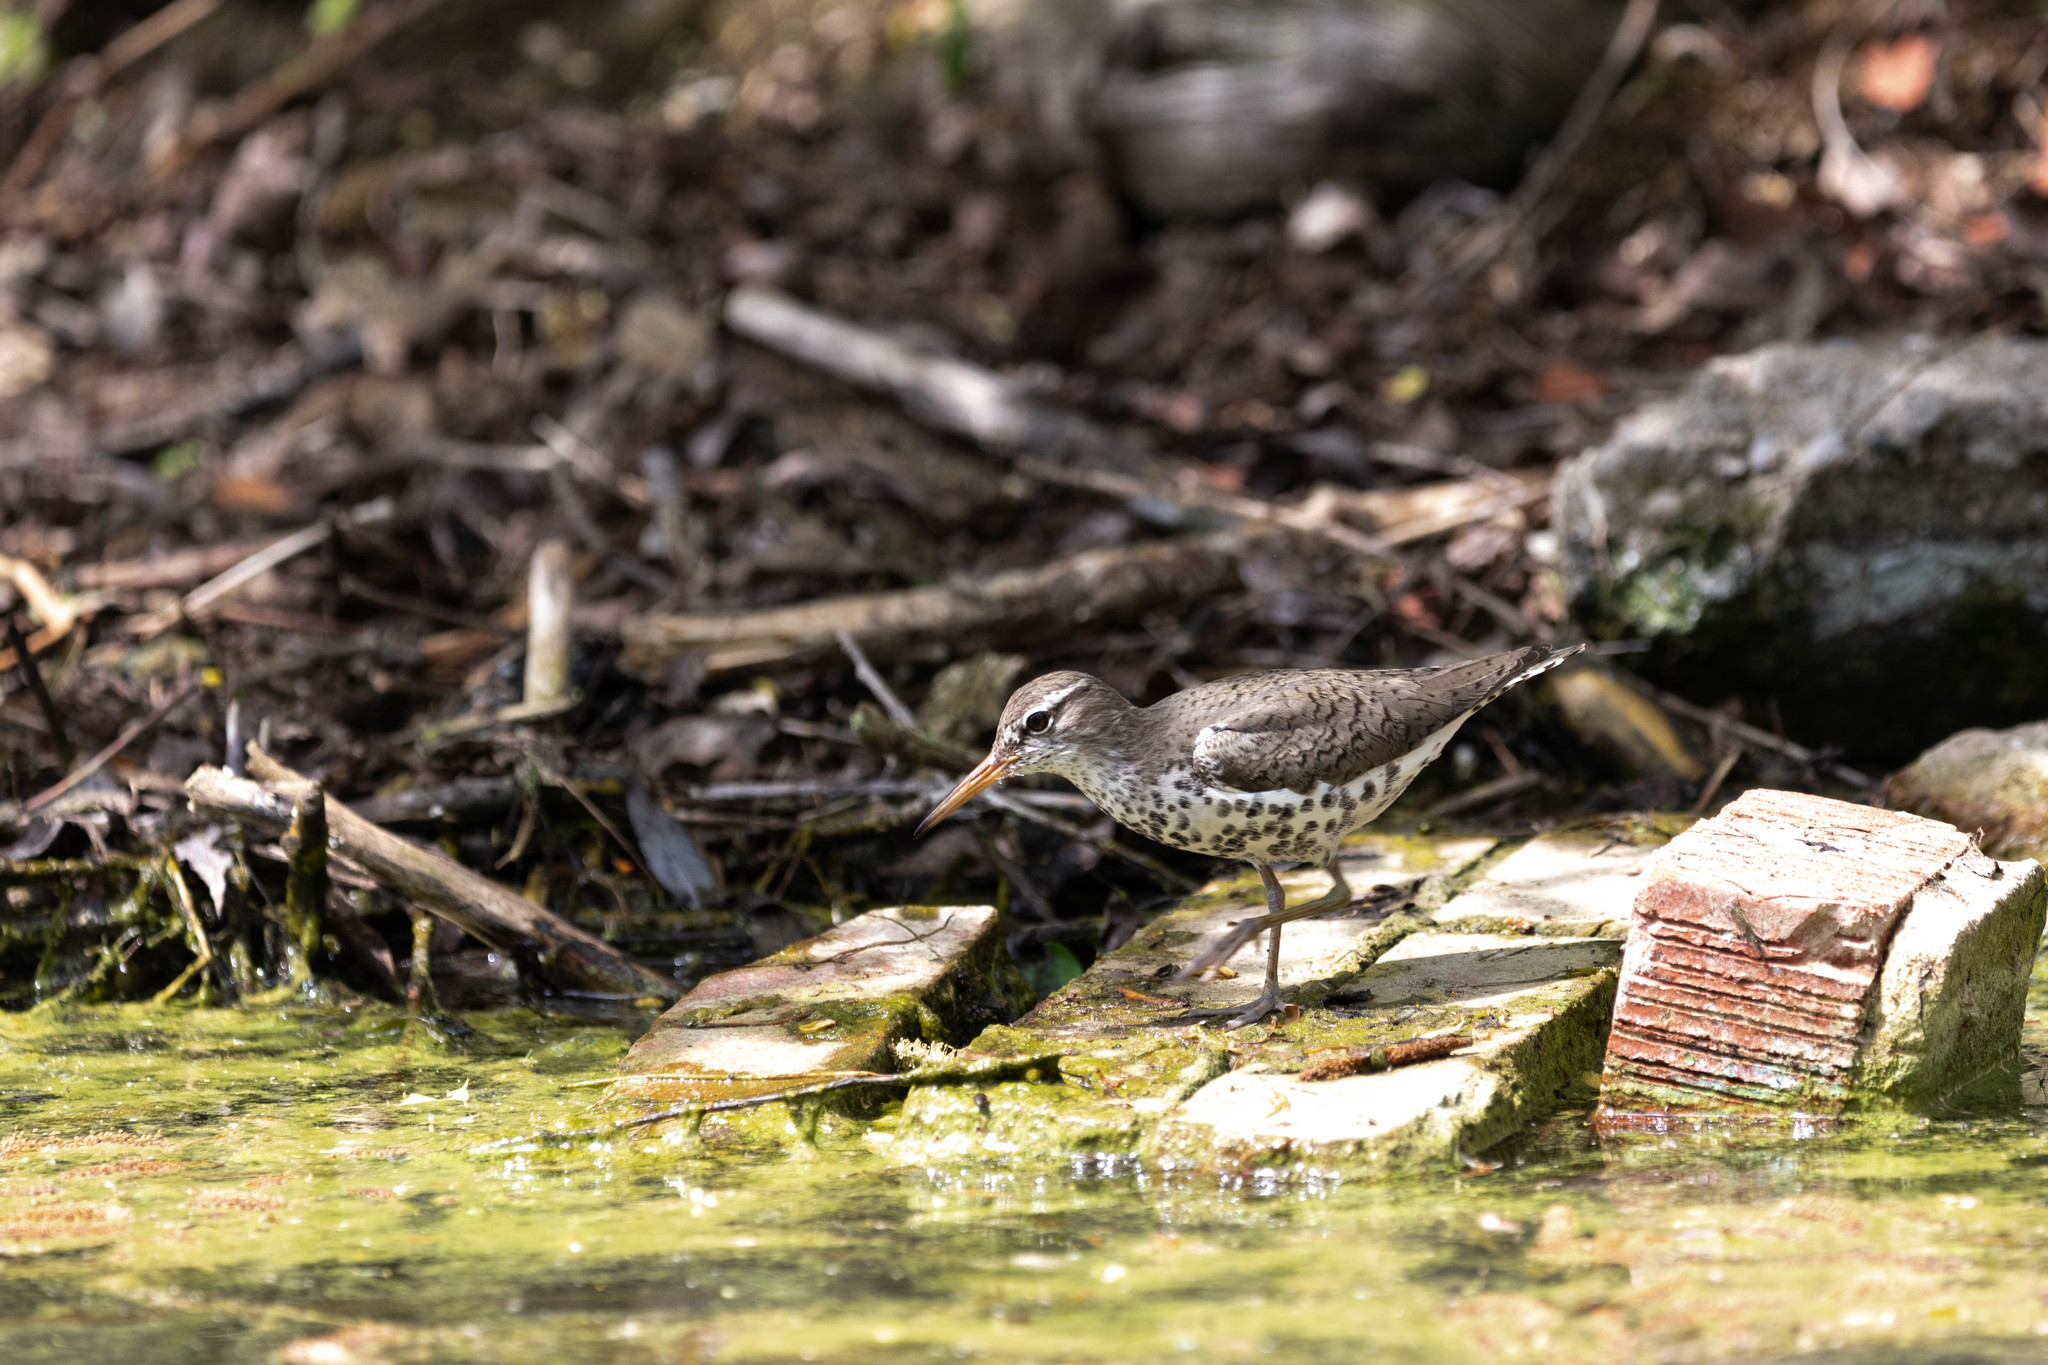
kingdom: Animalia
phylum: Chordata
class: Aves
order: Charadriiformes
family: Scolopacidae
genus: Actitis
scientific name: Actitis macularius
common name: Spotted sandpiper
